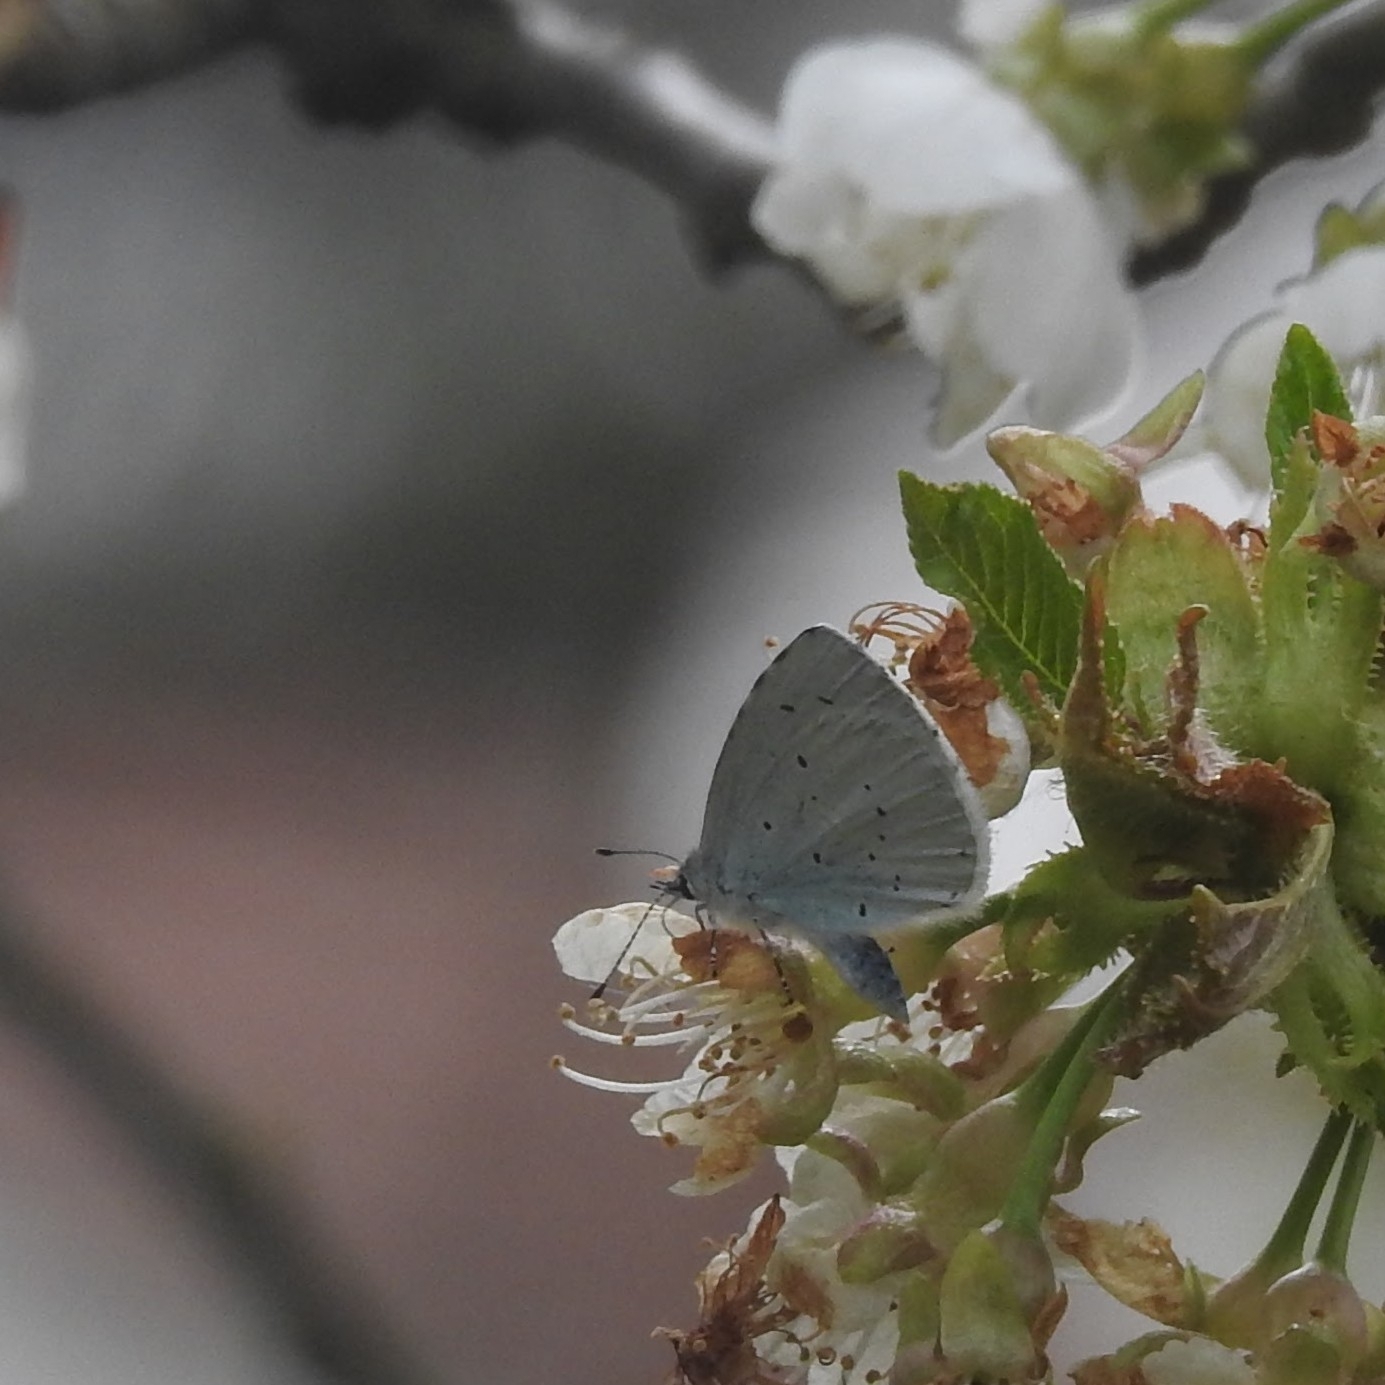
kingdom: Animalia
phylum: Arthropoda
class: Insecta
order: Lepidoptera
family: Lycaenidae
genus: Celastrina
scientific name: Celastrina argiolus
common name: Holly blue
